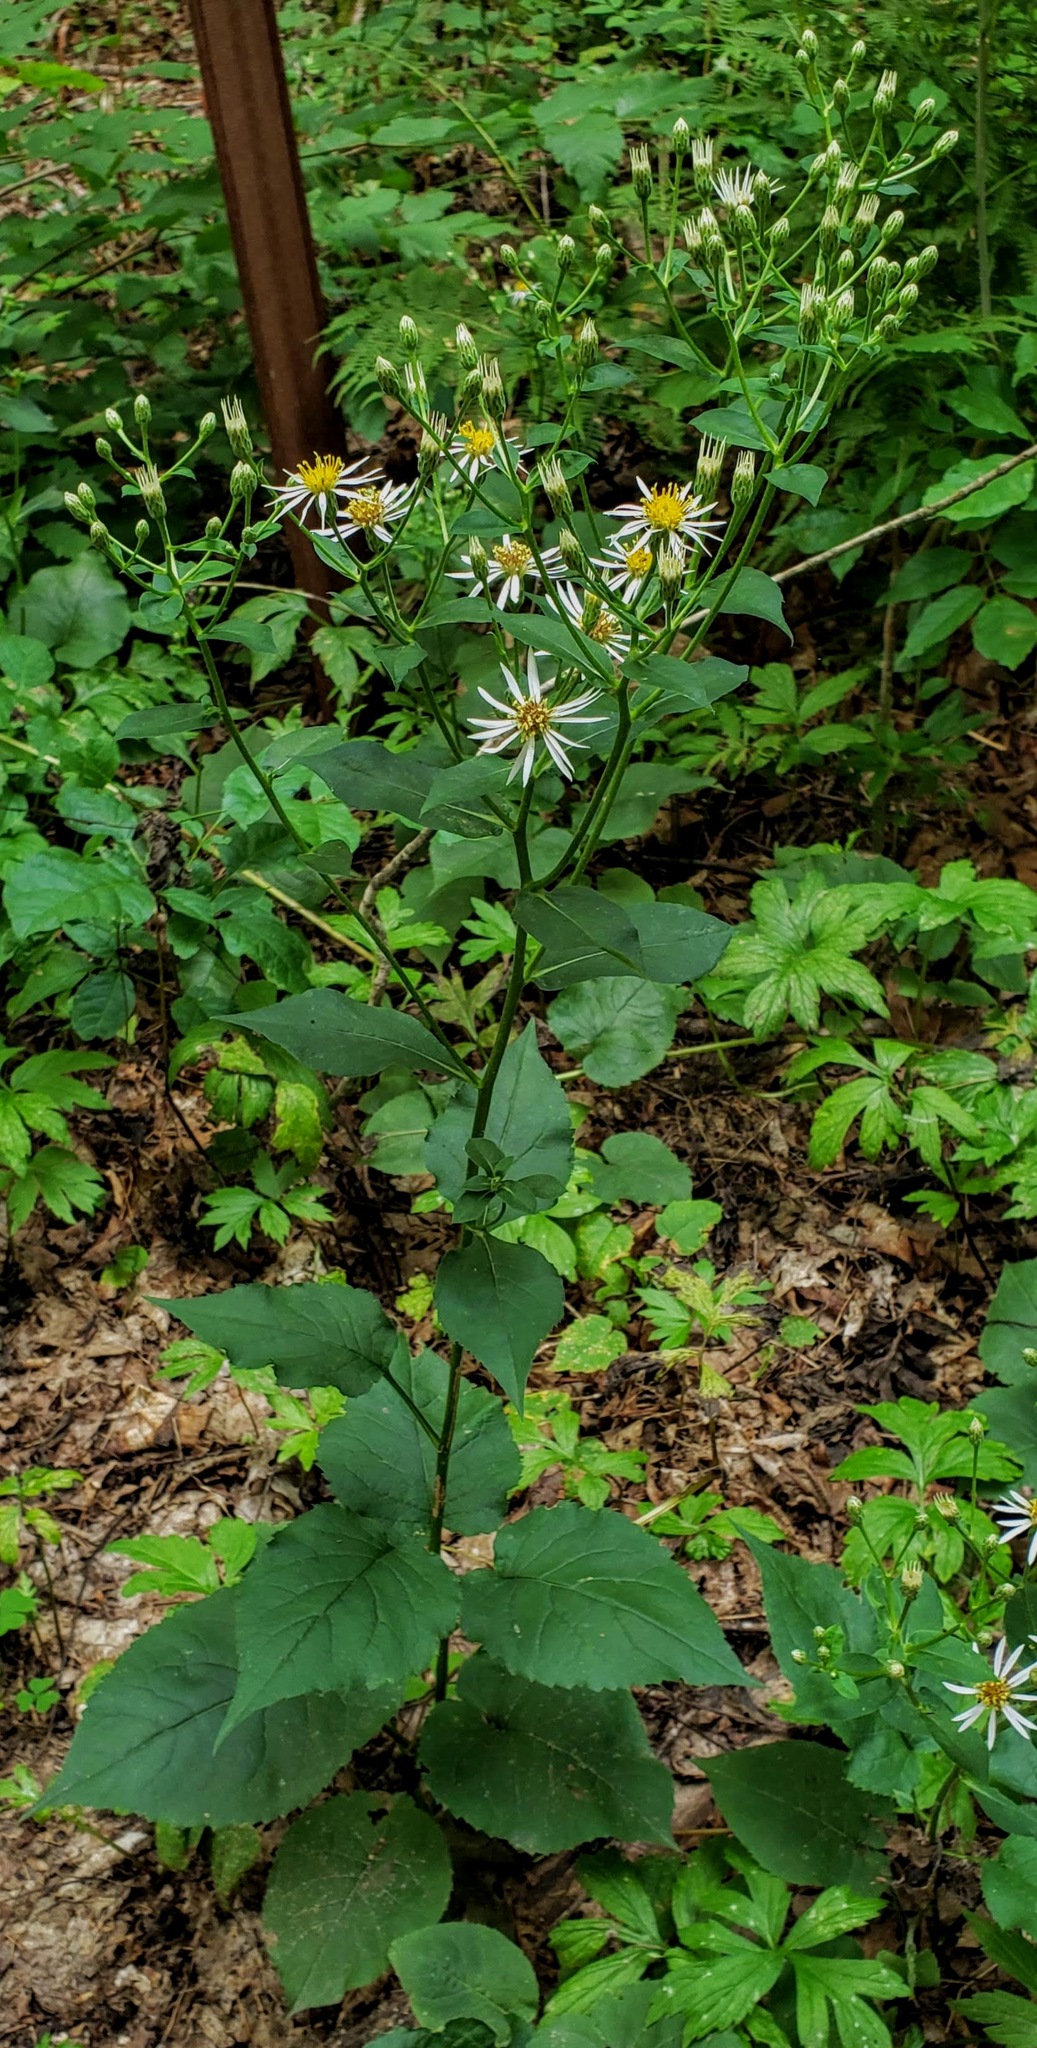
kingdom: Plantae
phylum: Tracheophyta
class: Magnoliopsida
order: Asterales
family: Asteraceae
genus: Eurybia
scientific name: Eurybia macrophylla
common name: Big-leaved aster
